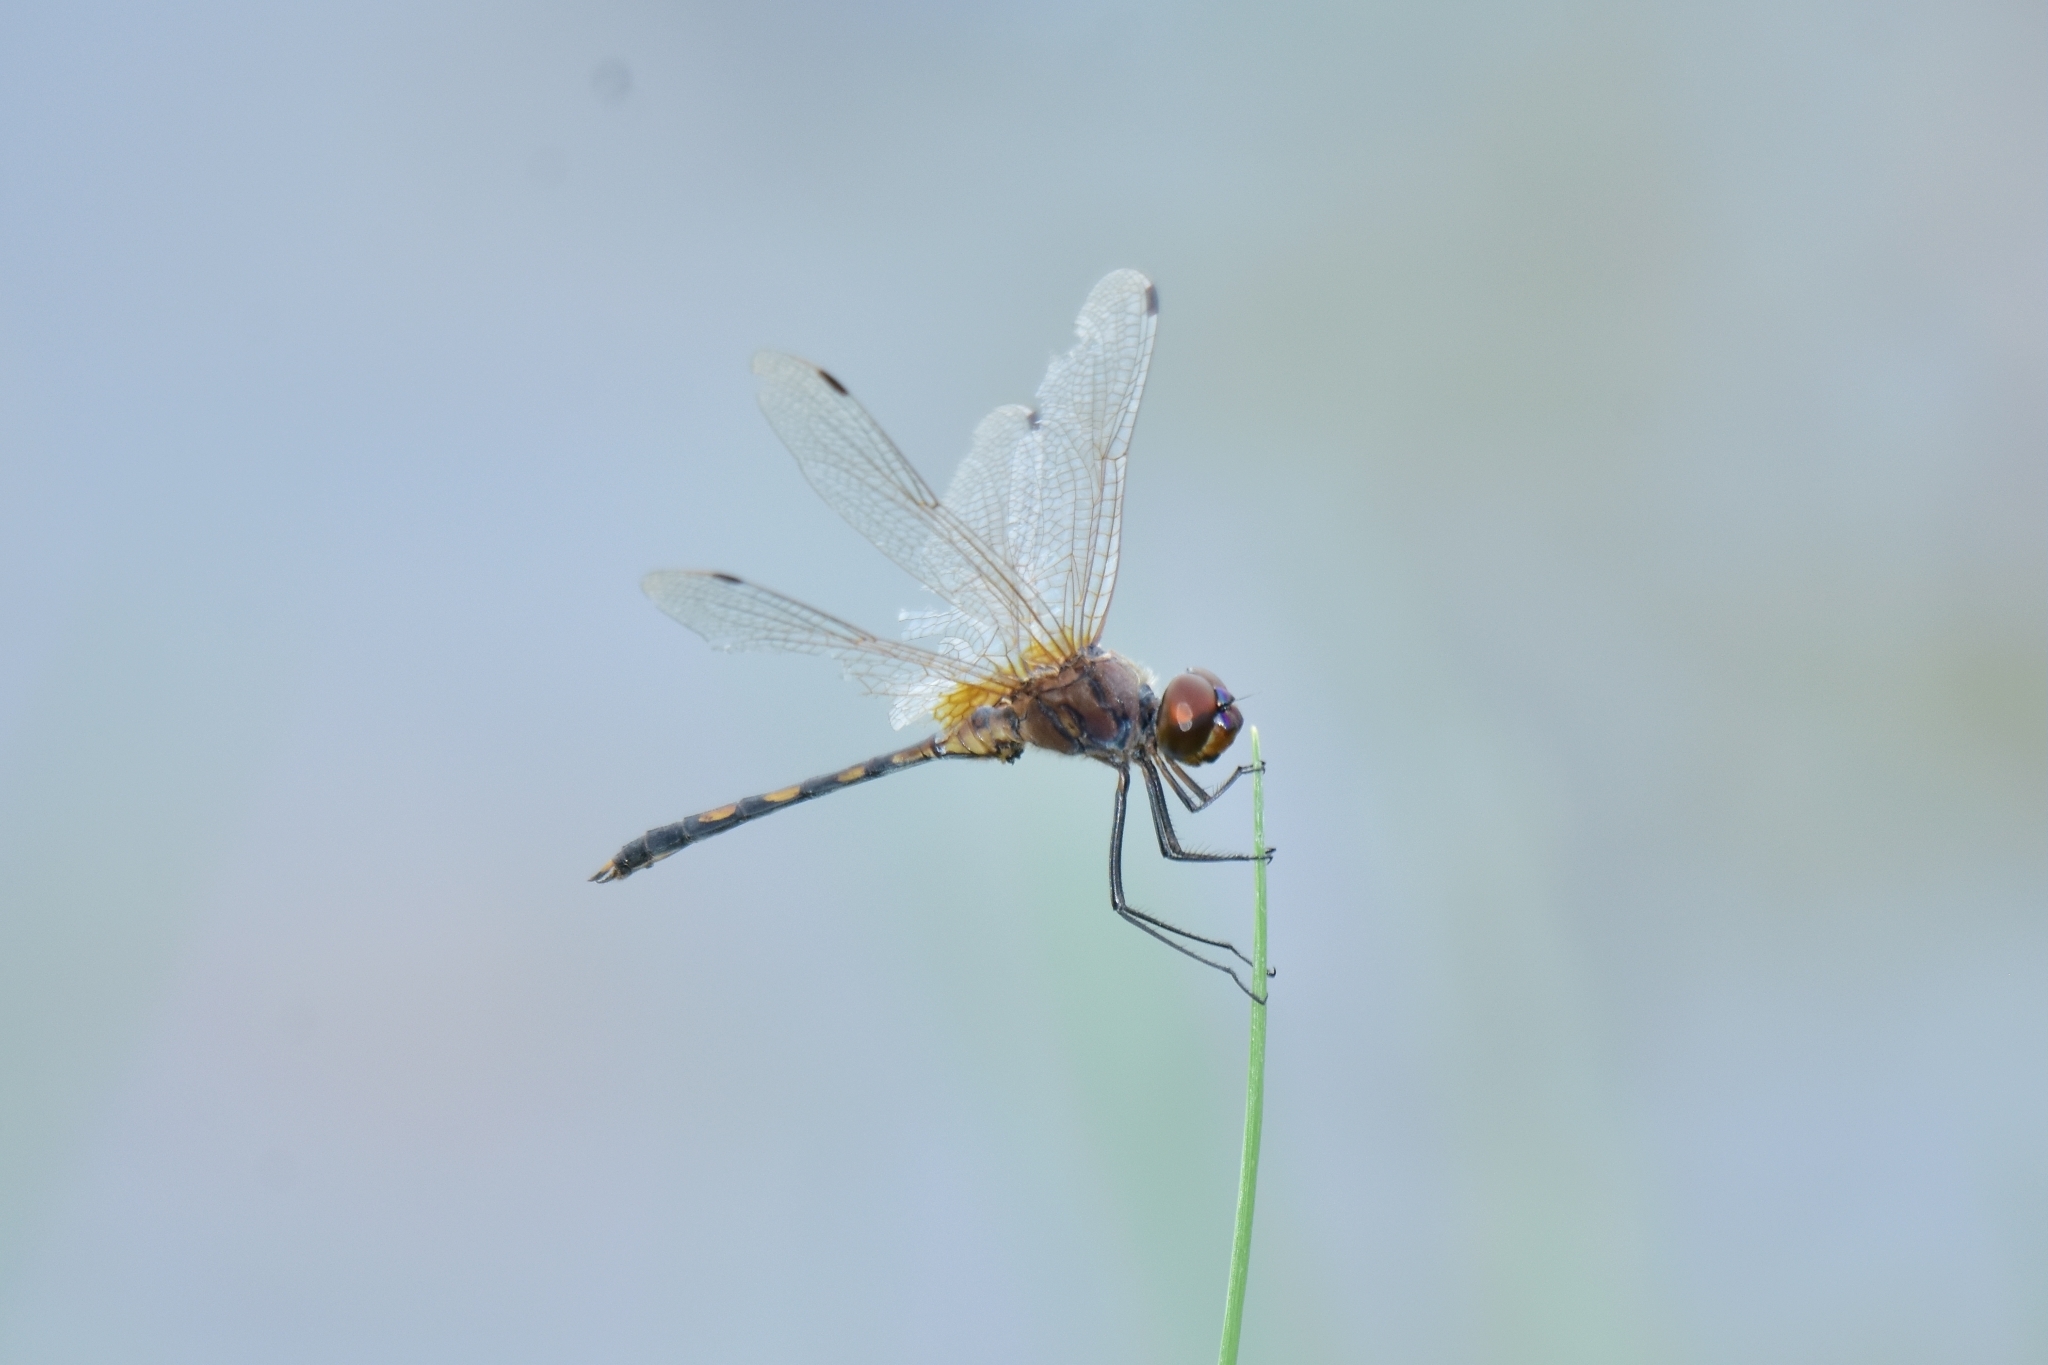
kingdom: Animalia
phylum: Arthropoda
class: Insecta
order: Odonata
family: Libellulidae
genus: Trithemis
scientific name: Trithemis pallidinervis
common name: Dancing dropwing
